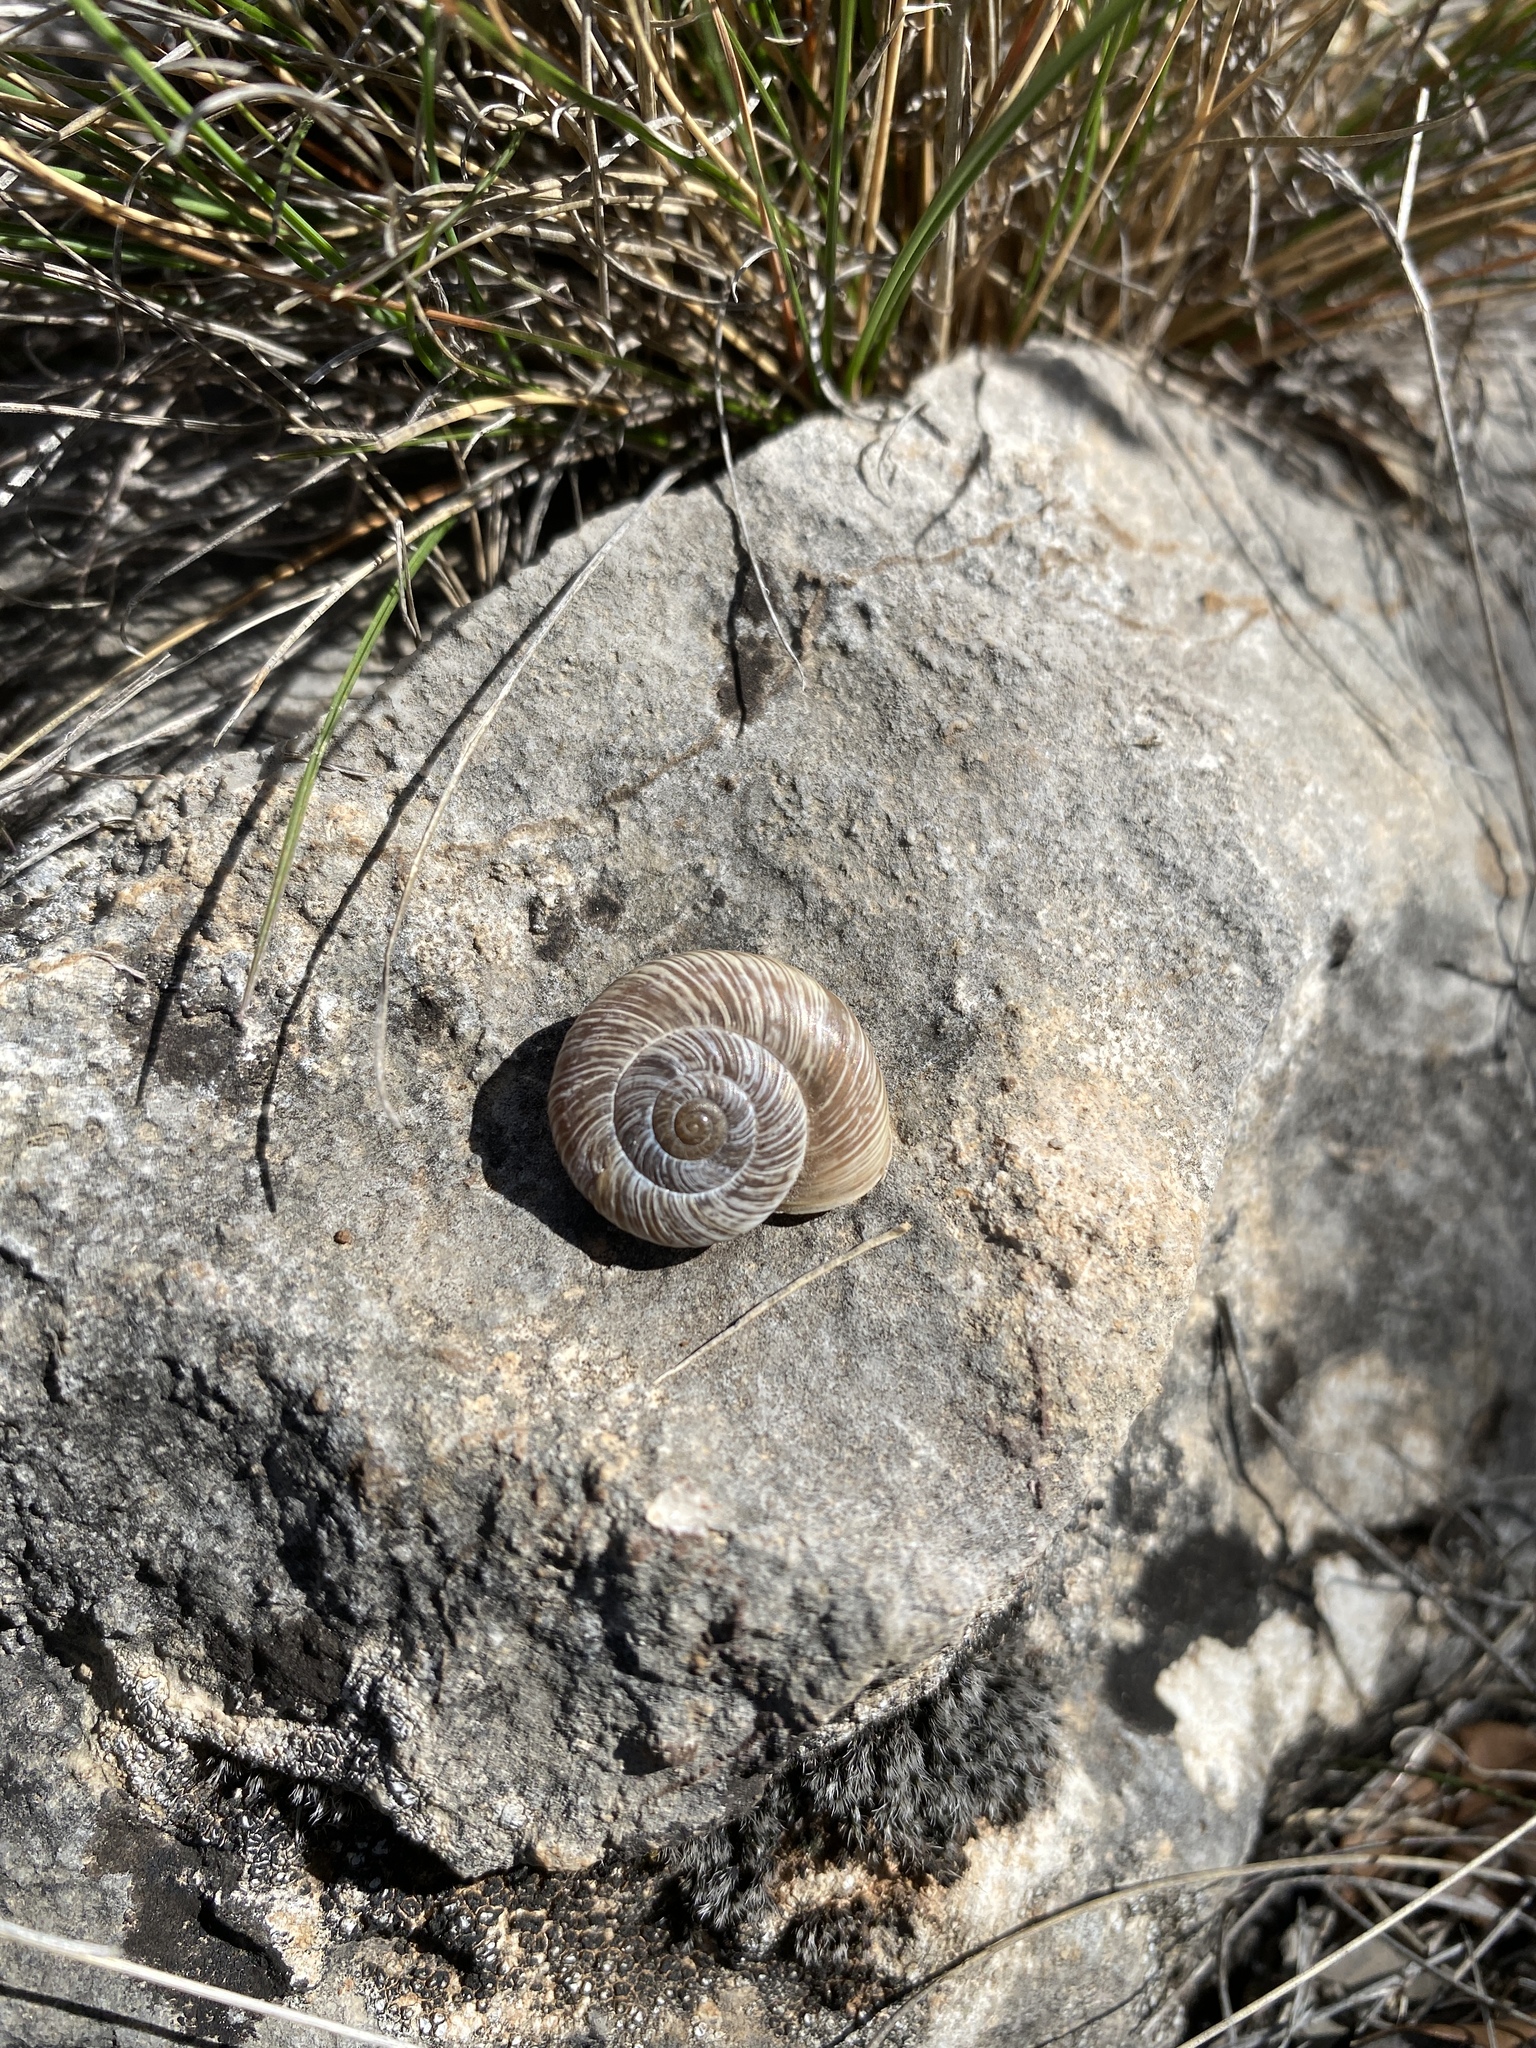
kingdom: Animalia
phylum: Mollusca
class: Gastropoda
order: Stylommatophora
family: Hygromiidae
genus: Pyrenaearia
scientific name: Pyrenaearia organiaca
